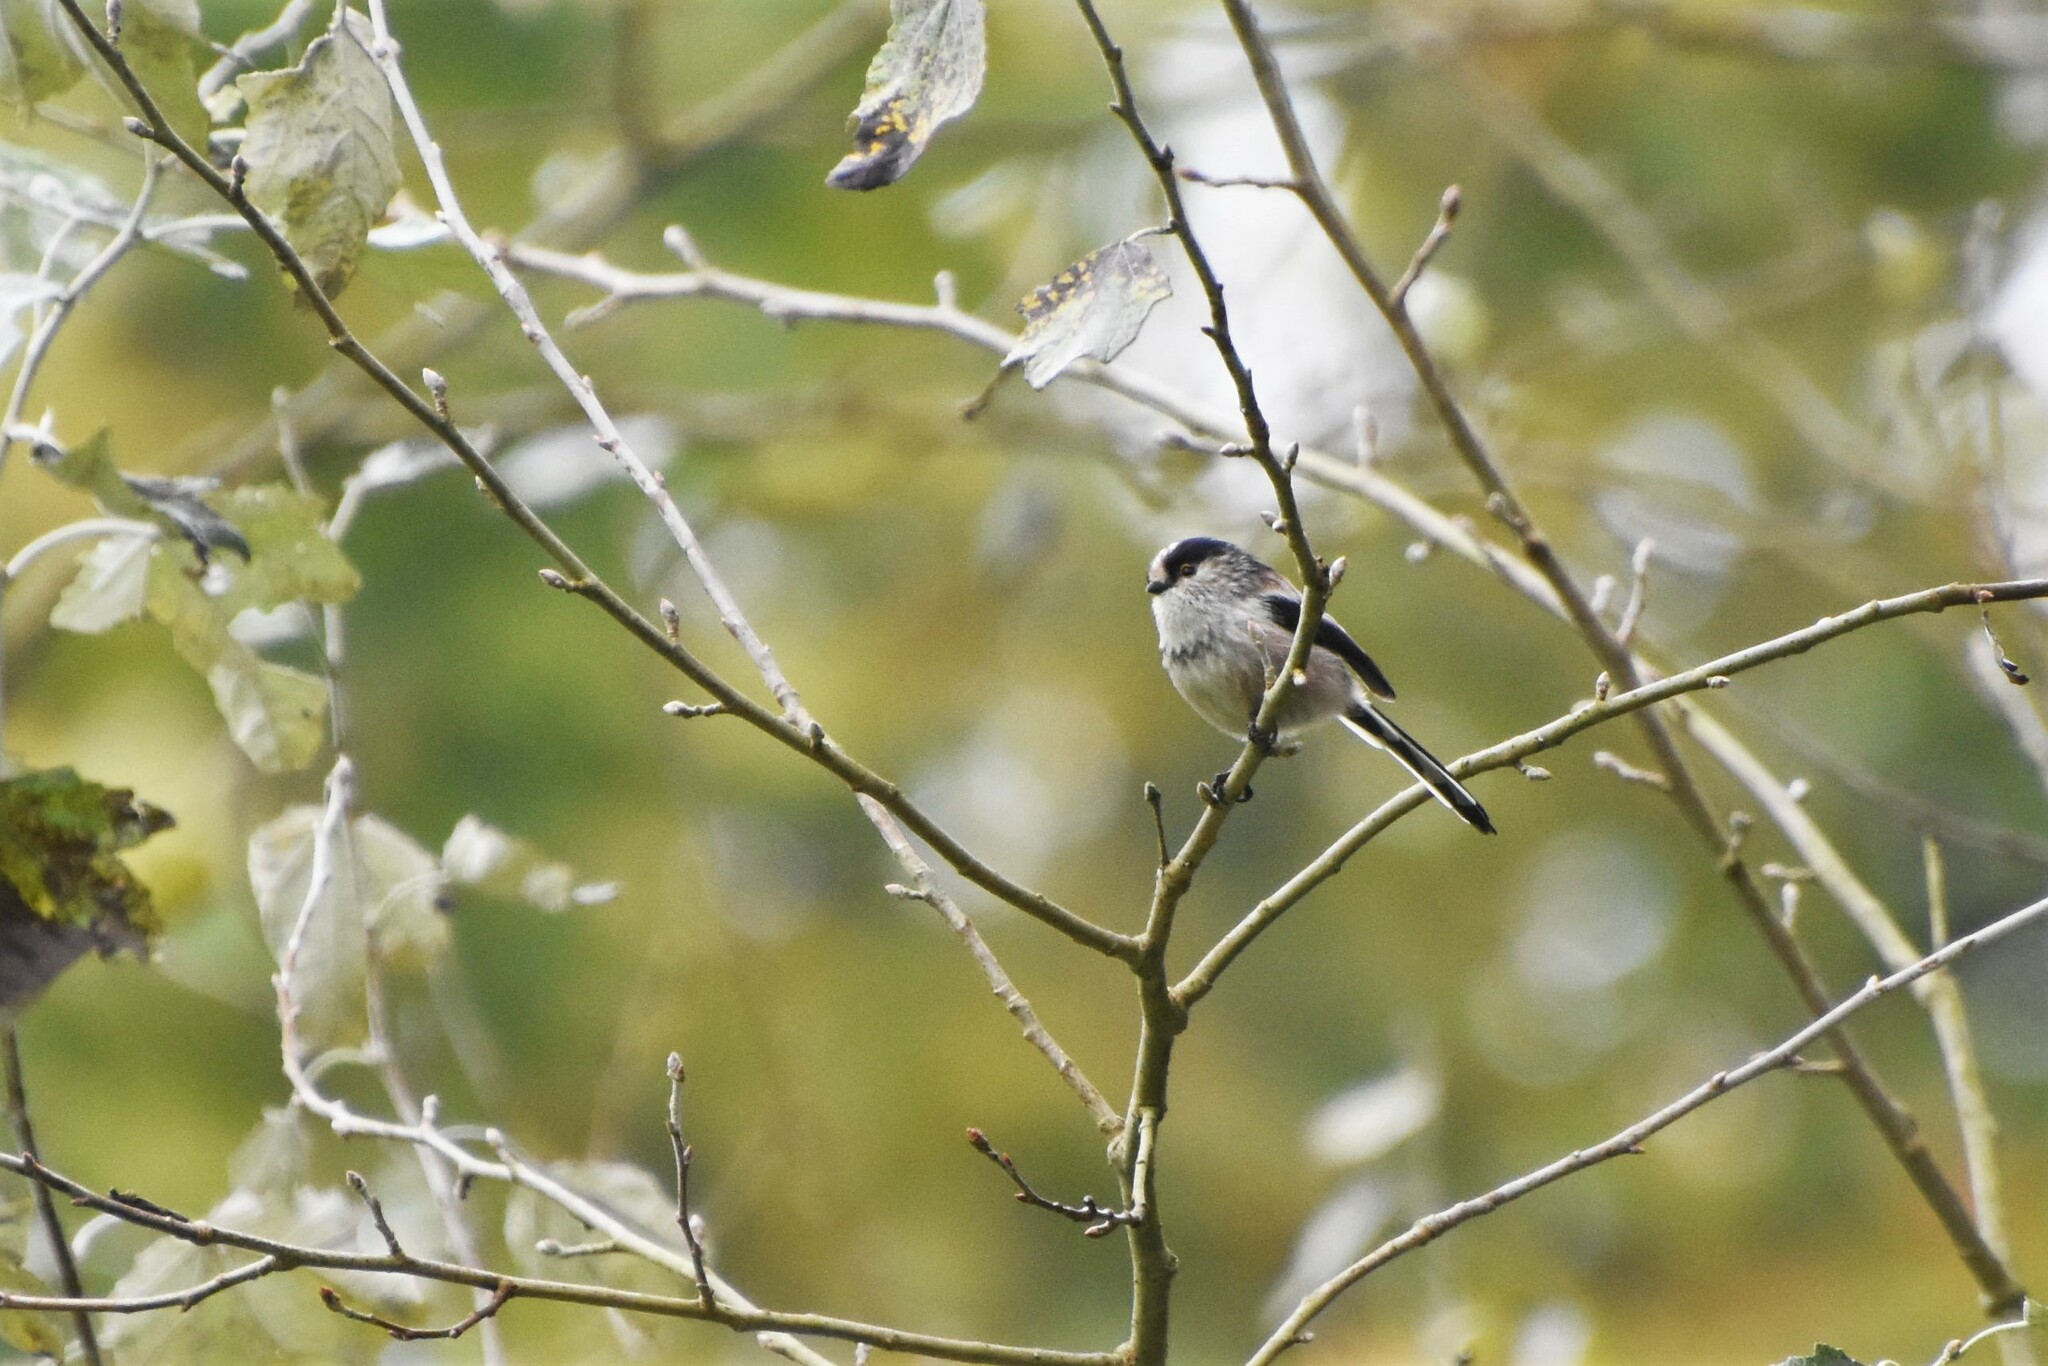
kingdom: Animalia
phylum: Chordata
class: Aves
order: Passeriformes
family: Aegithalidae
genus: Aegithalos
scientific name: Aegithalos caudatus
